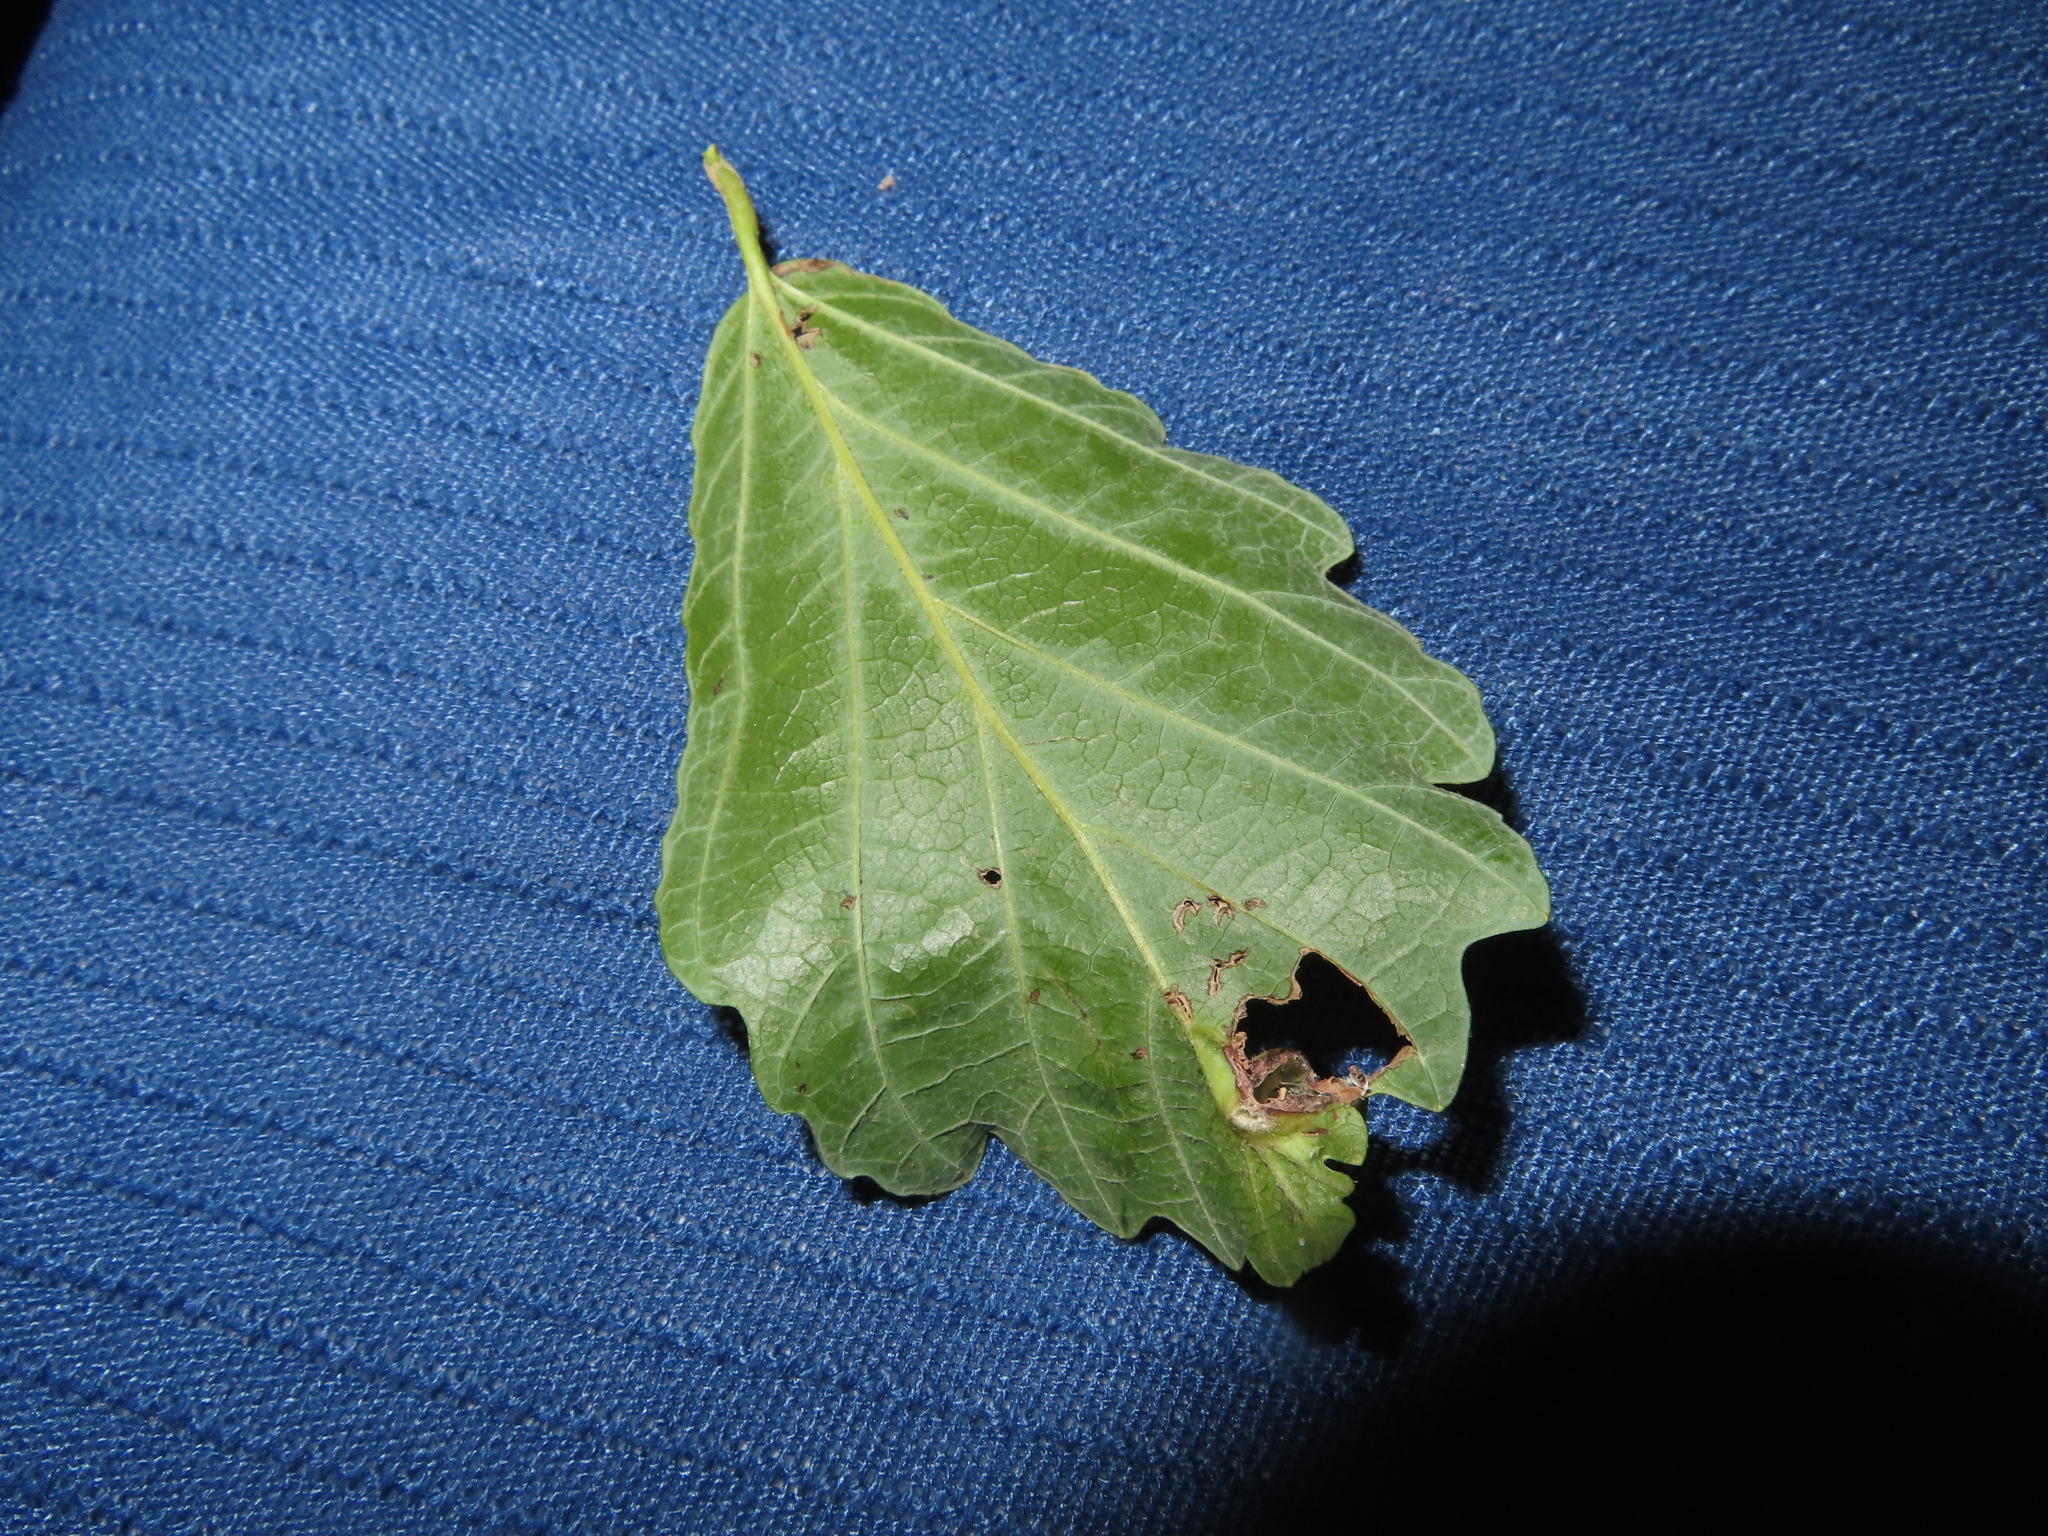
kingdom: Animalia
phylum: Arthropoda
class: Insecta
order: Hemiptera
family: Aphididae
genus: Hormaphis
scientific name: Hormaphis hamamelidis
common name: Witch-hazel cone gall aphid
